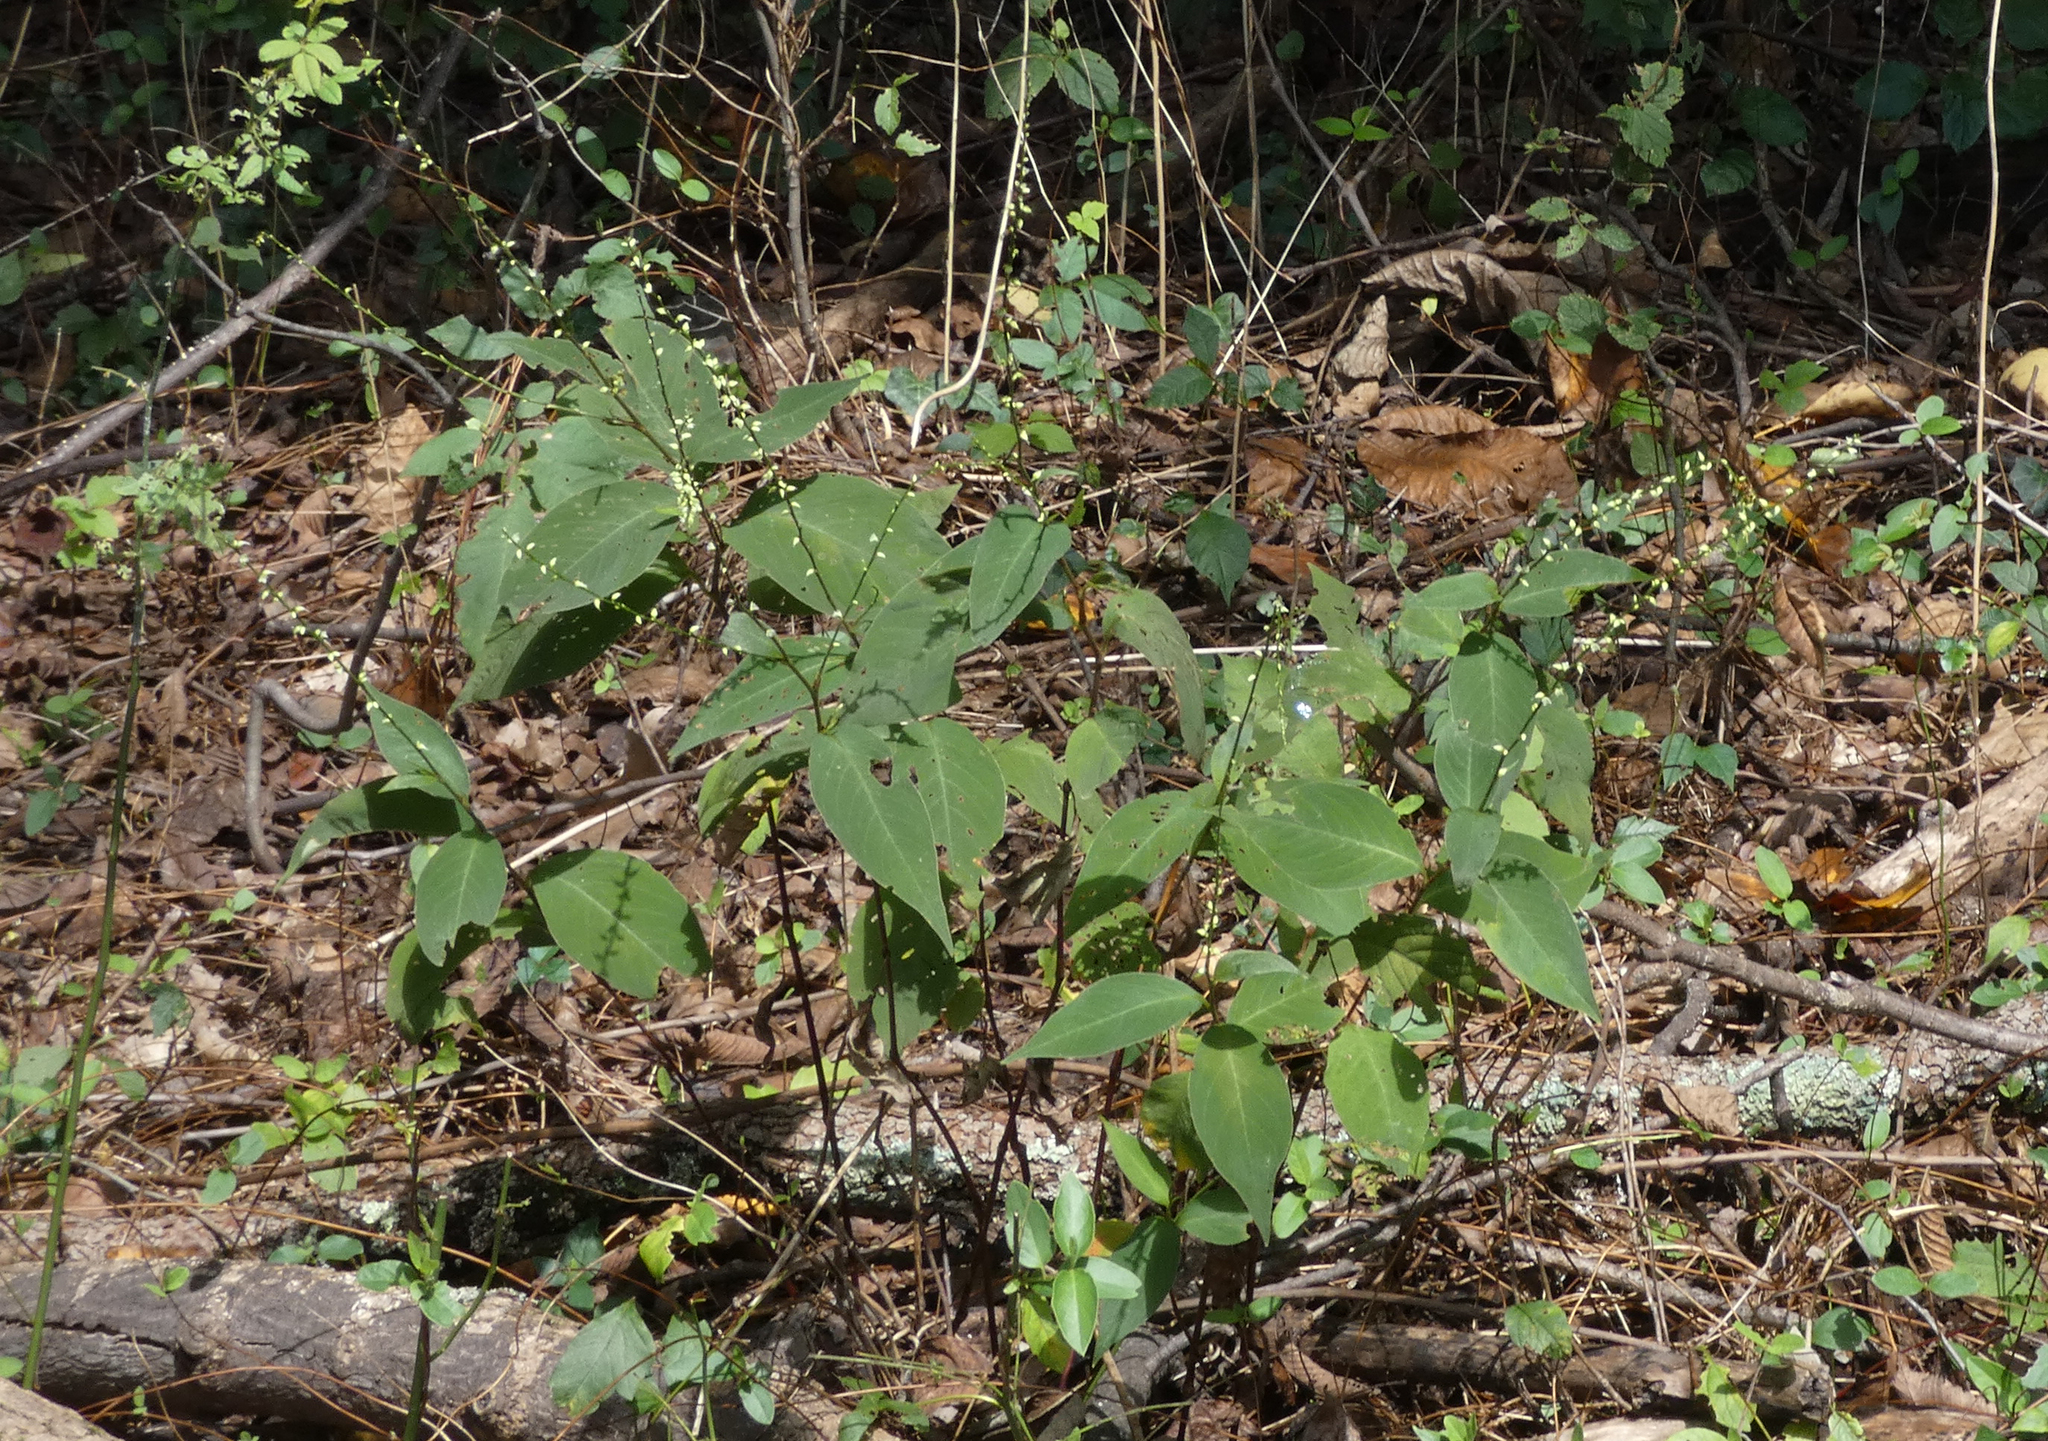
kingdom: Plantae
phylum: Tracheophyta
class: Magnoliopsida
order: Caryophyllales
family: Polygonaceae
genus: Persicaria
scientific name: Persicaria virginiana
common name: Jumpseed
